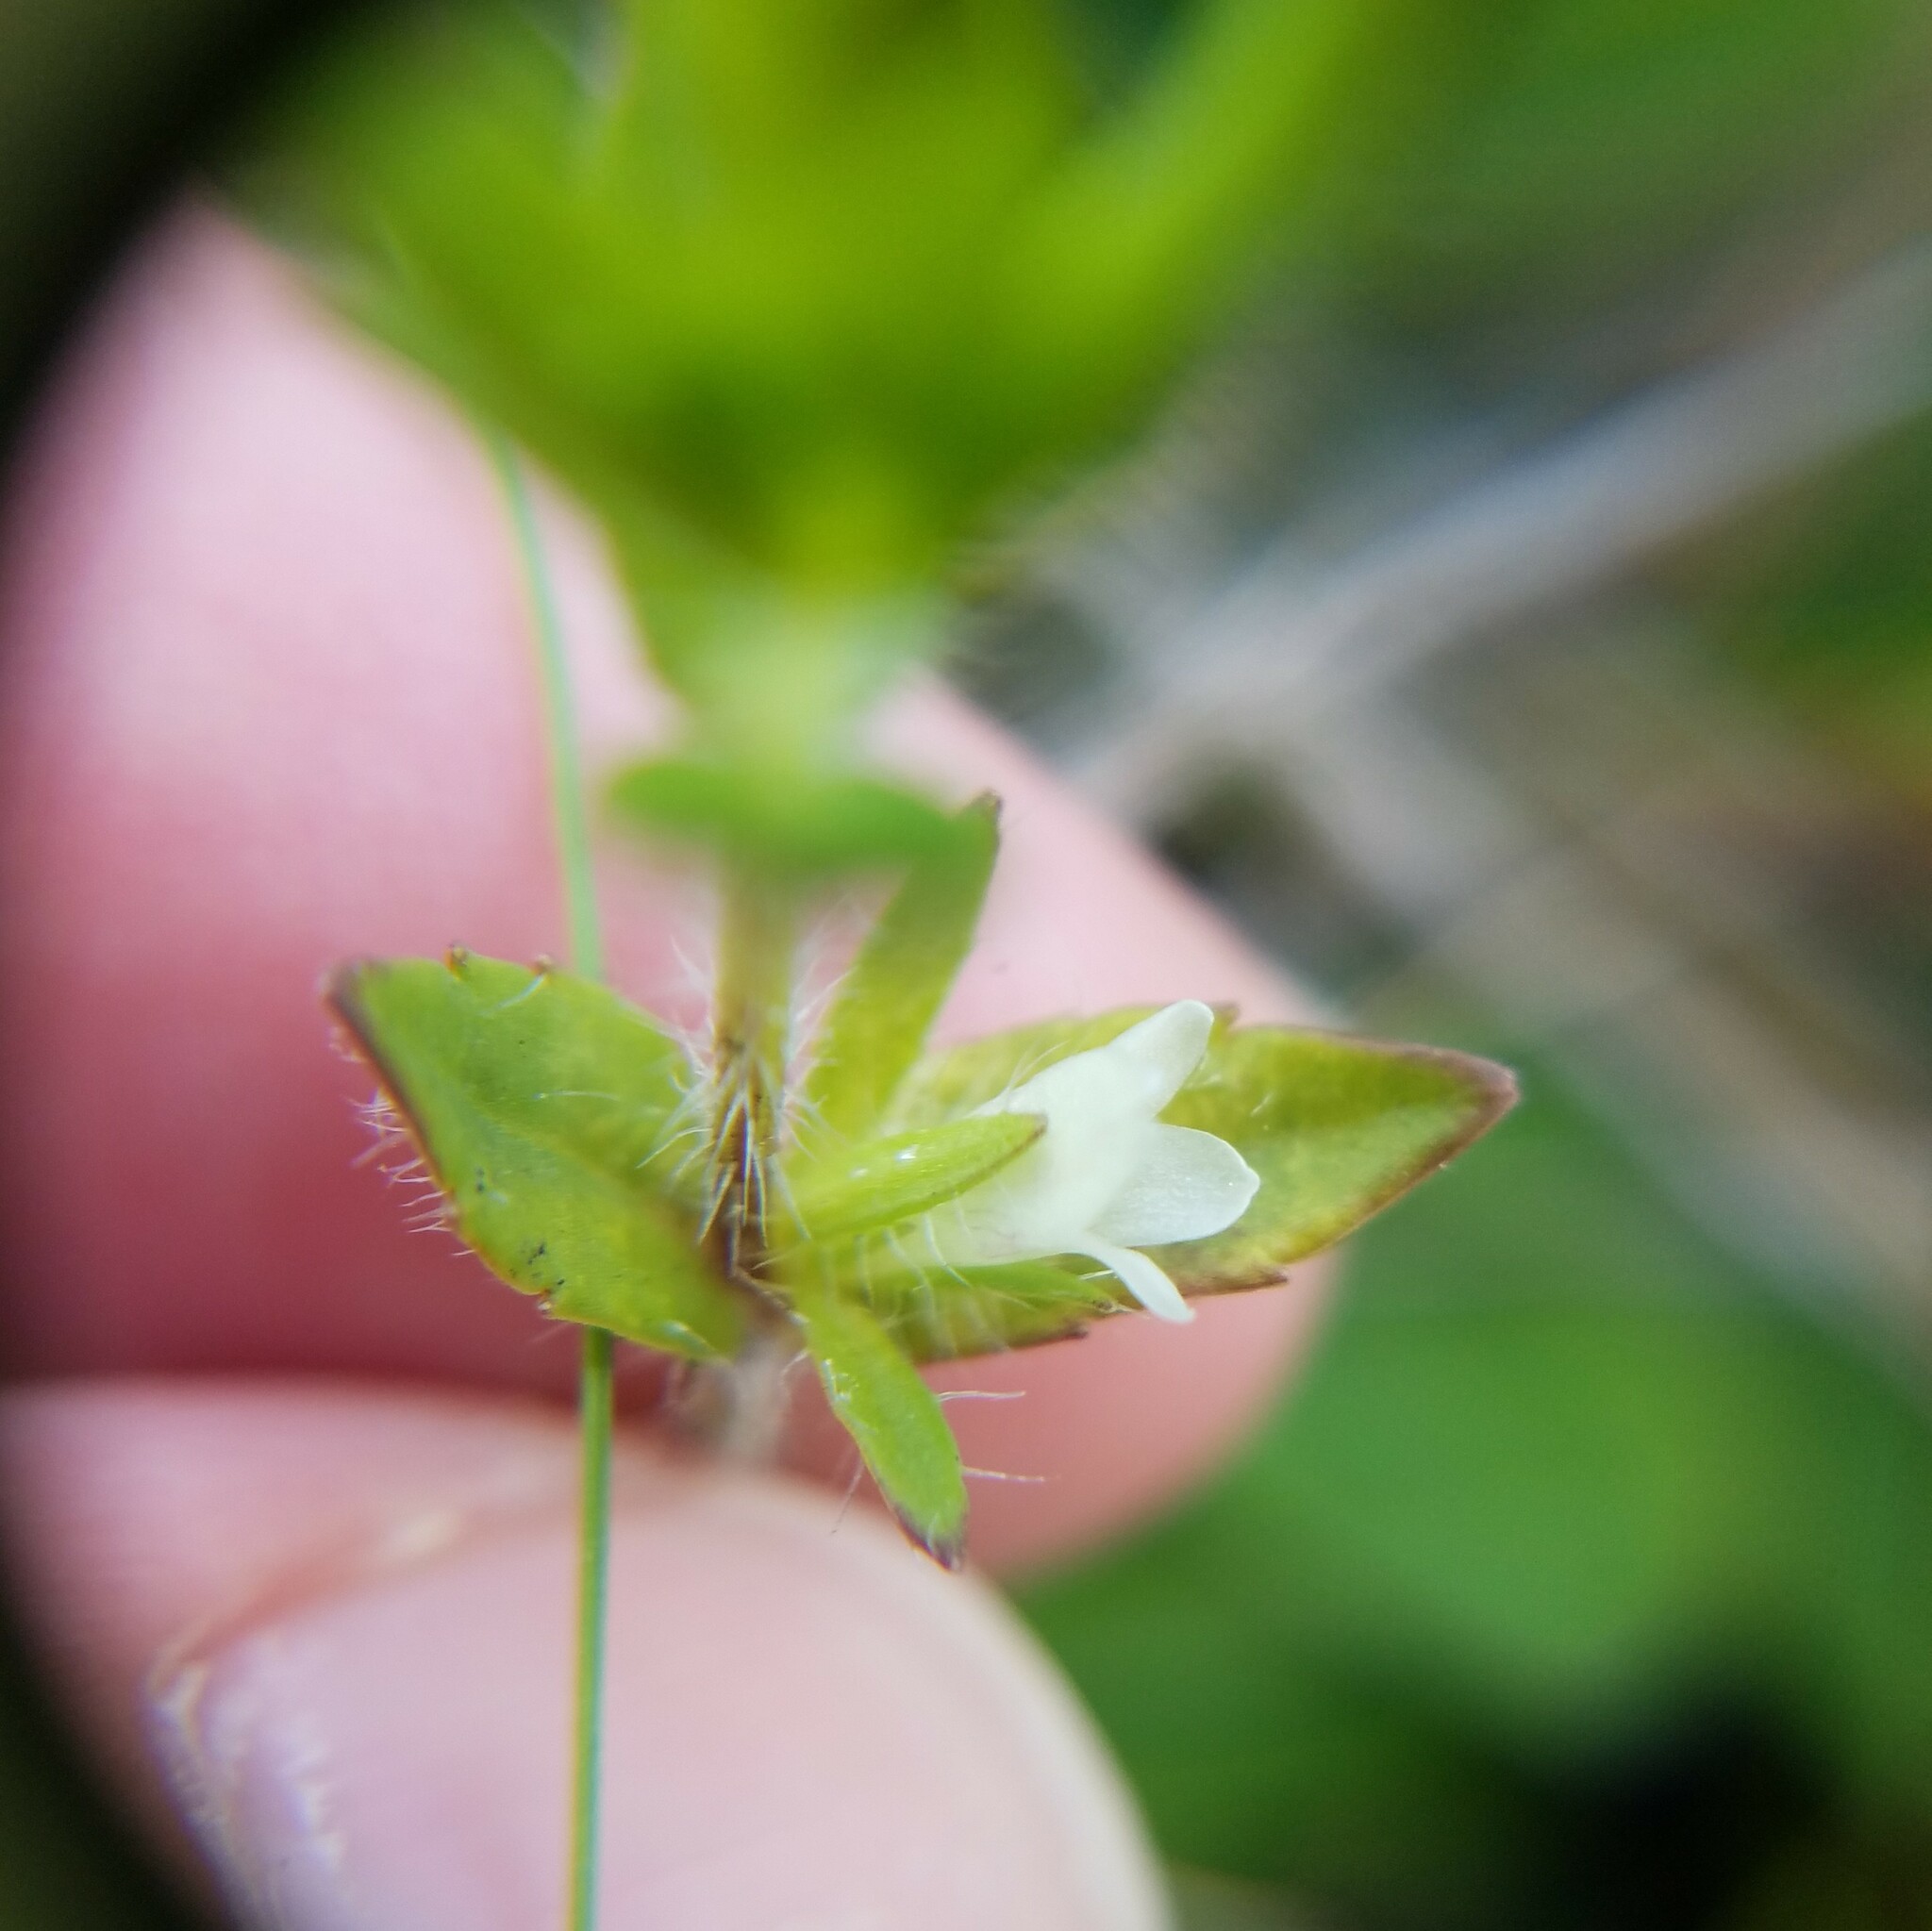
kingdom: Plantae
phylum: Tracheophyta
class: Magnoliopsida
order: Lamiales
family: Plantaginaceae
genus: Gratiola
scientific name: Gratiola pilosa
